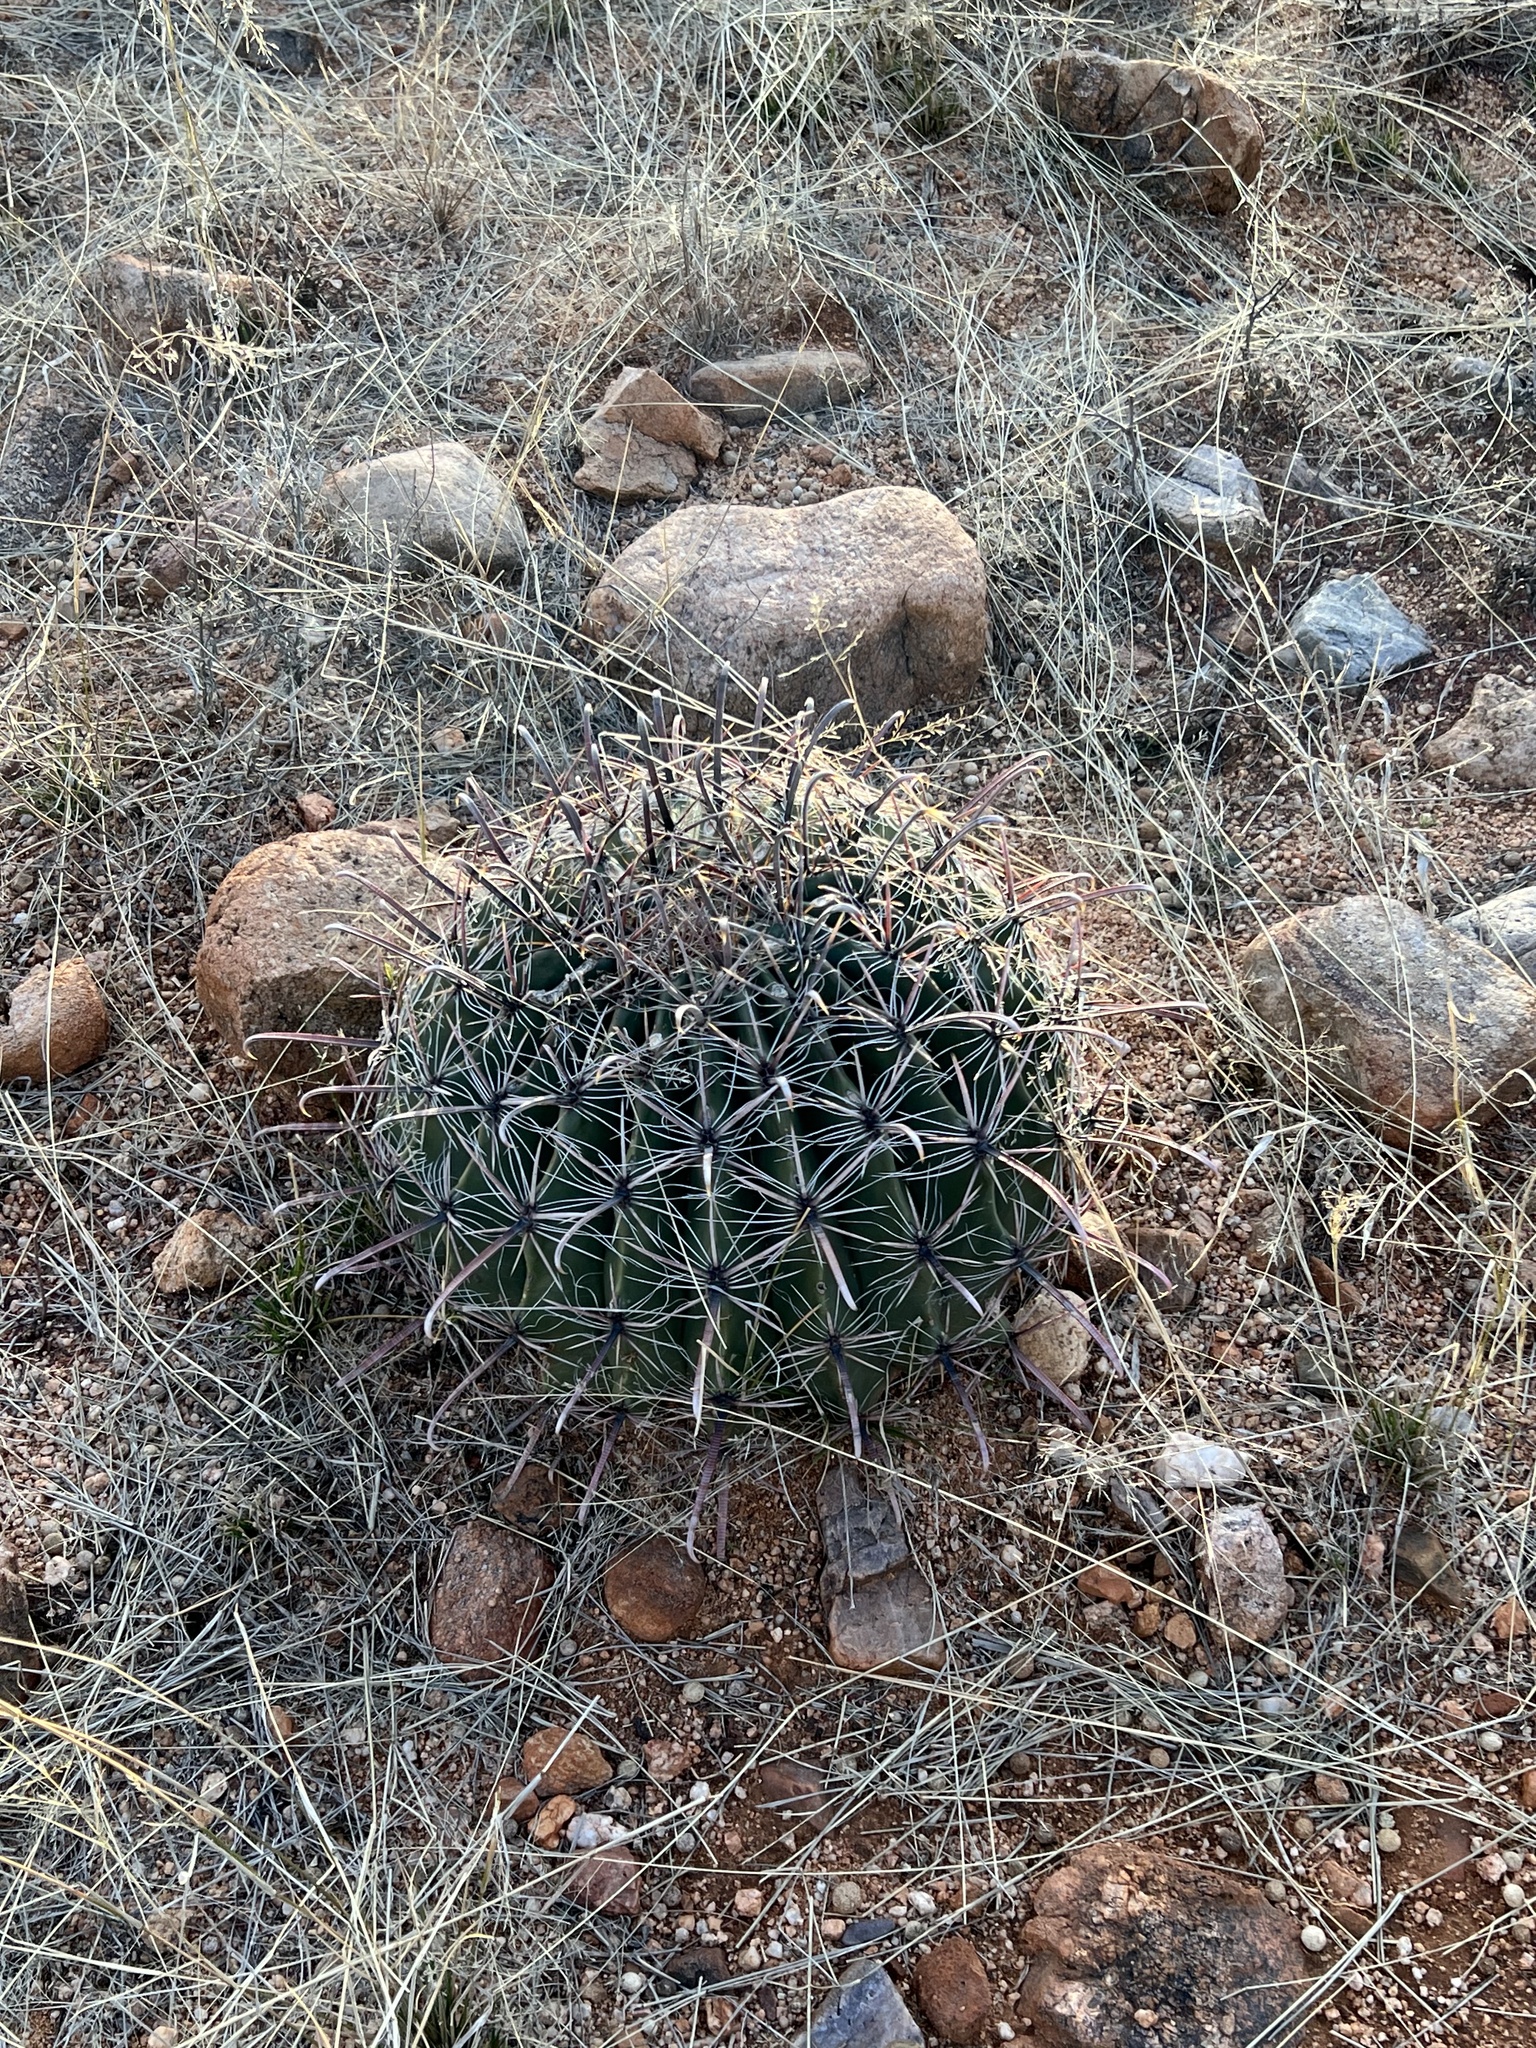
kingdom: Plantae
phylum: Tracheophyta
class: Magnoliopsida
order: Caryophyllales
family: Cactaceae
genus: Ferocactus
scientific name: Ferocactus wislizeni
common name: Candy barrel cactus
